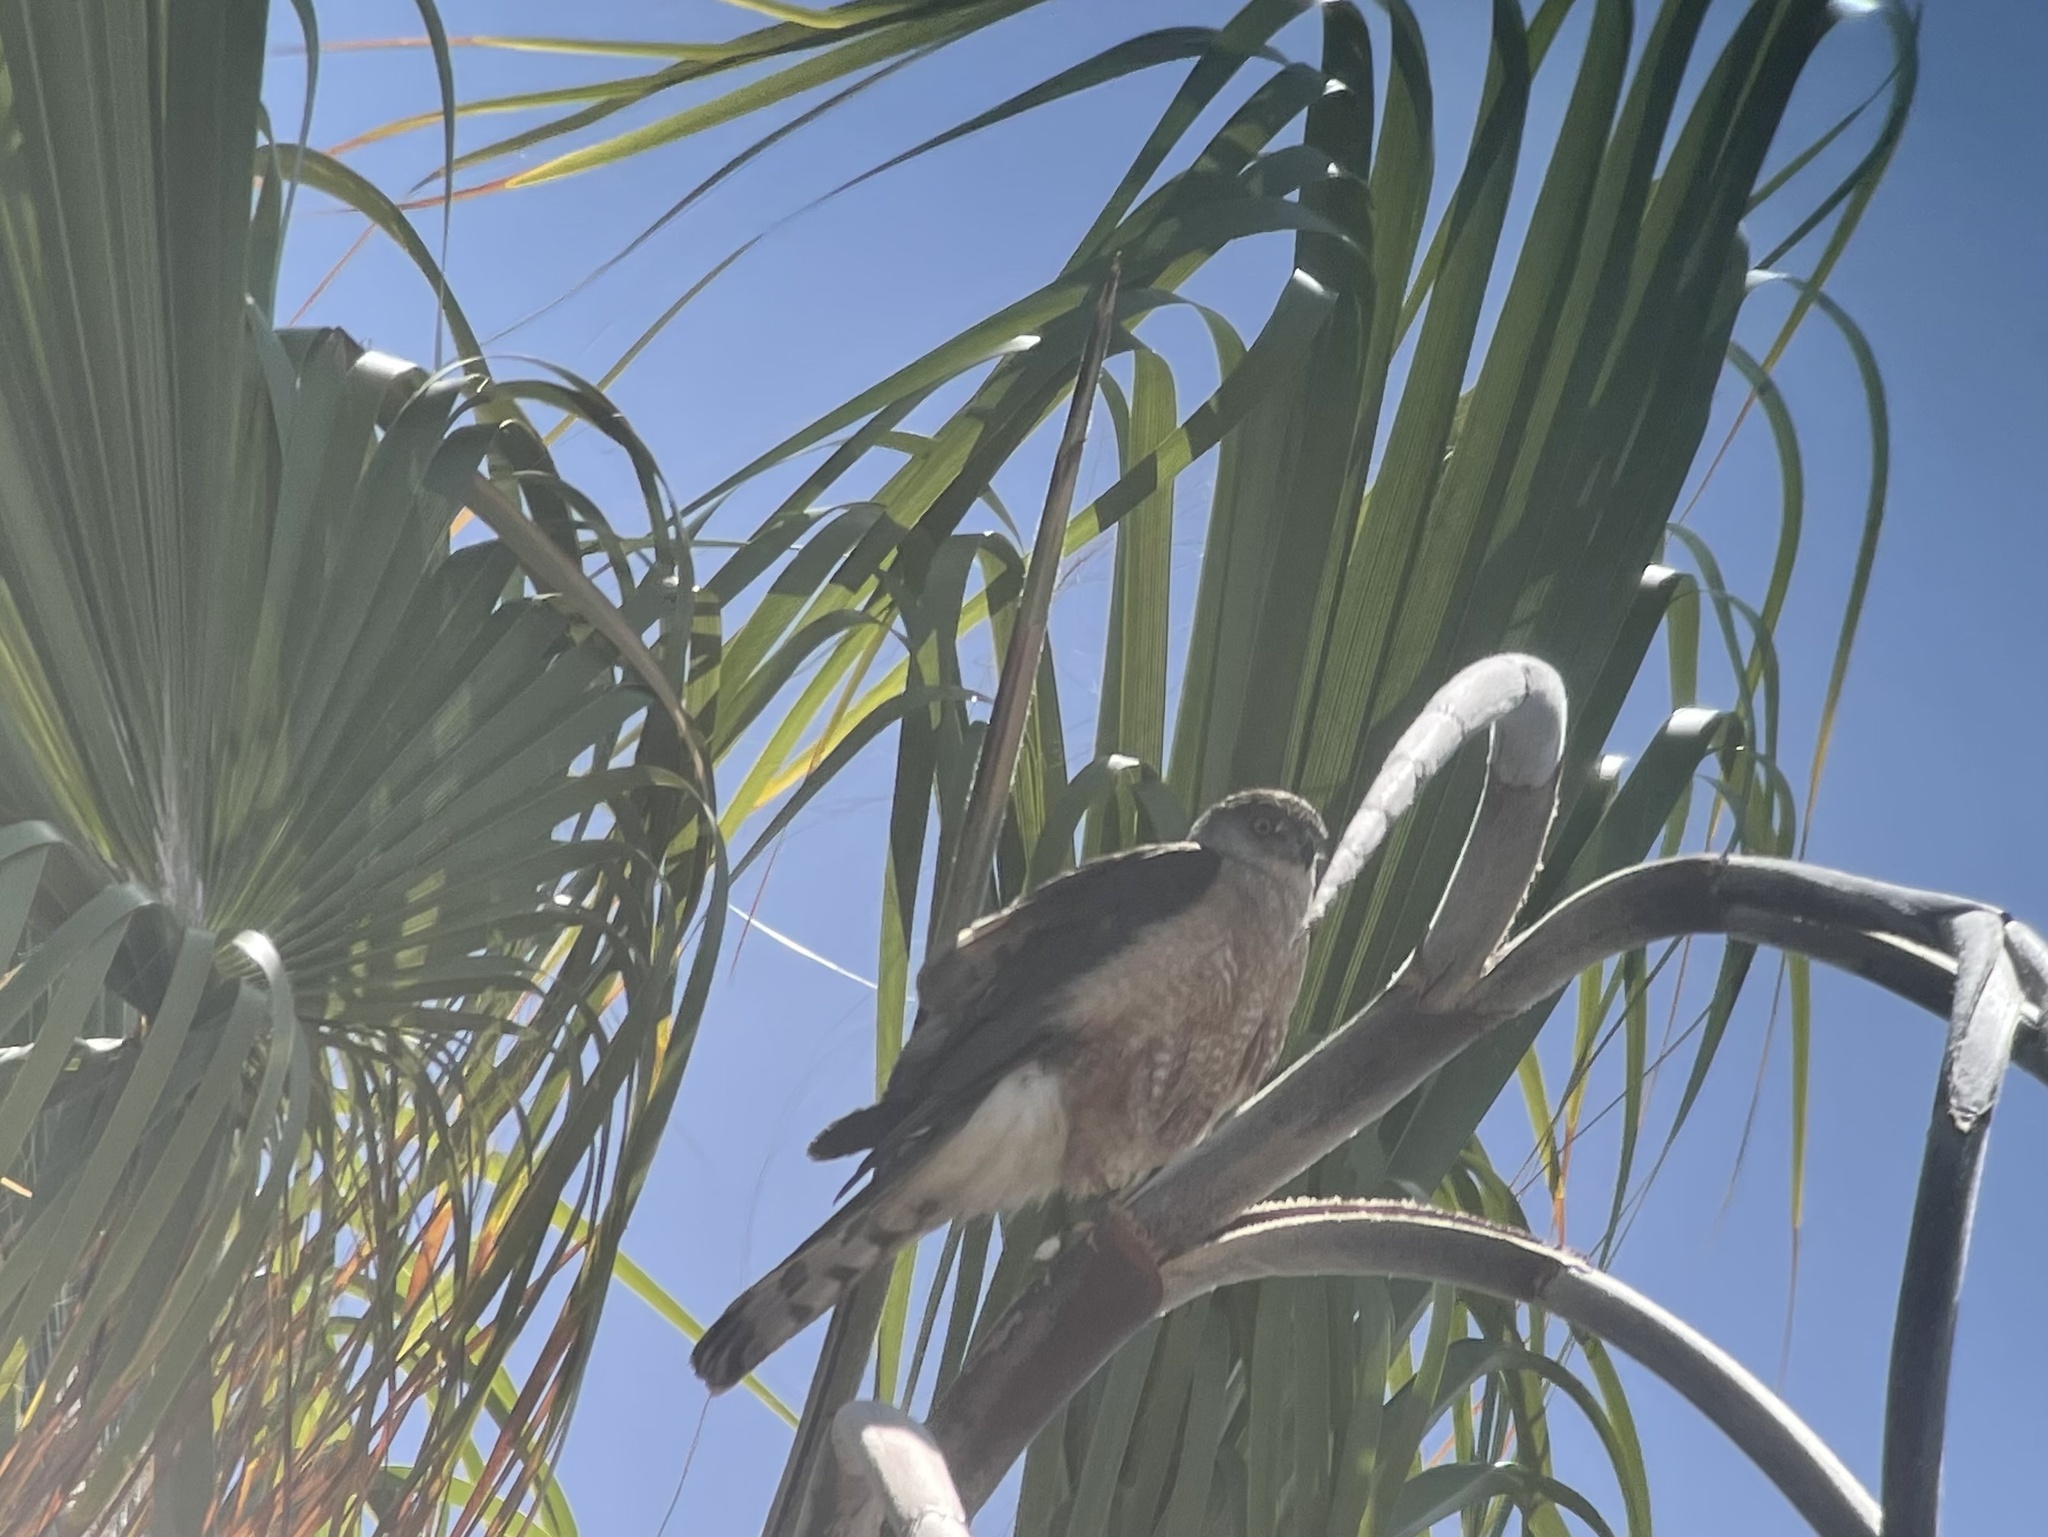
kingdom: Animalia
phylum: Chordata
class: Aves
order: Accipitriformes
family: Accipitridae
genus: Accipiter
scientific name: Accipiter cooperii
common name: Cooper's hawk
